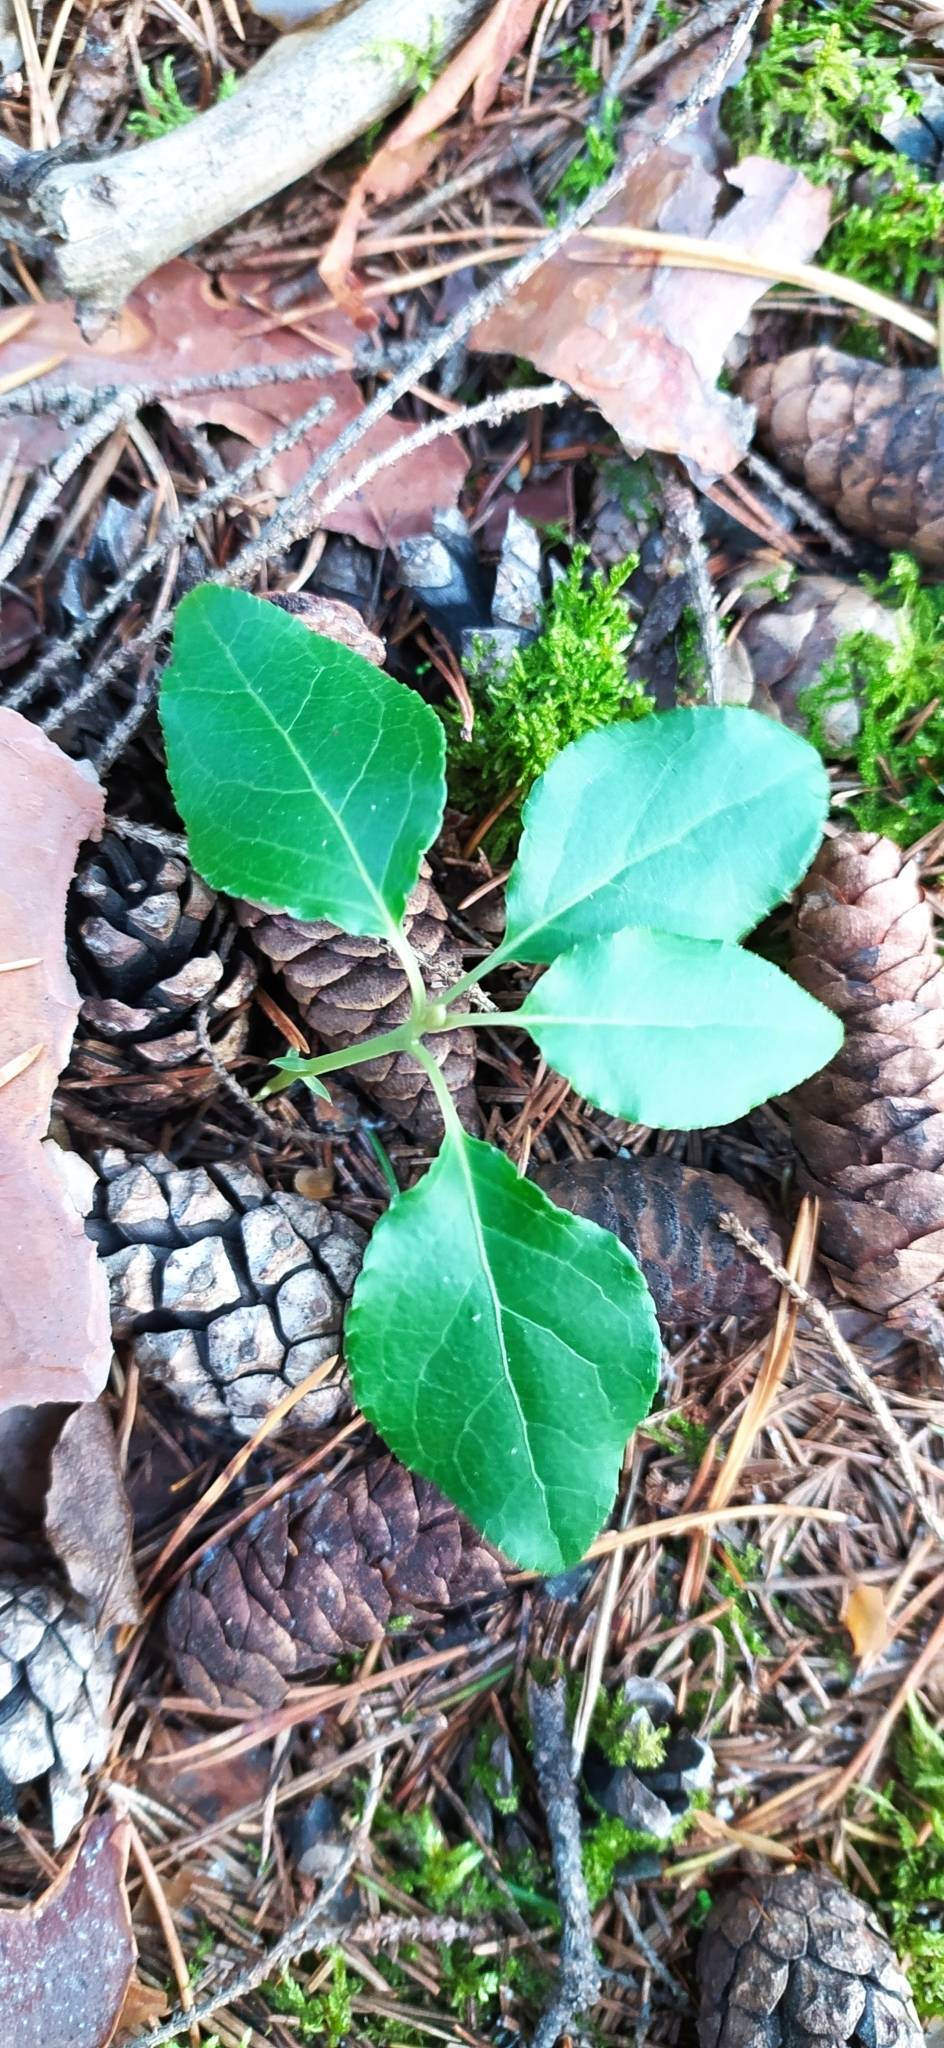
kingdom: Plantae
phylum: Tracheophyta
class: Magnoliopsida
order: Ericales
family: Ericaceae
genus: Orthilia
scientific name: Orthilia secunda
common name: One-sided orthilia
